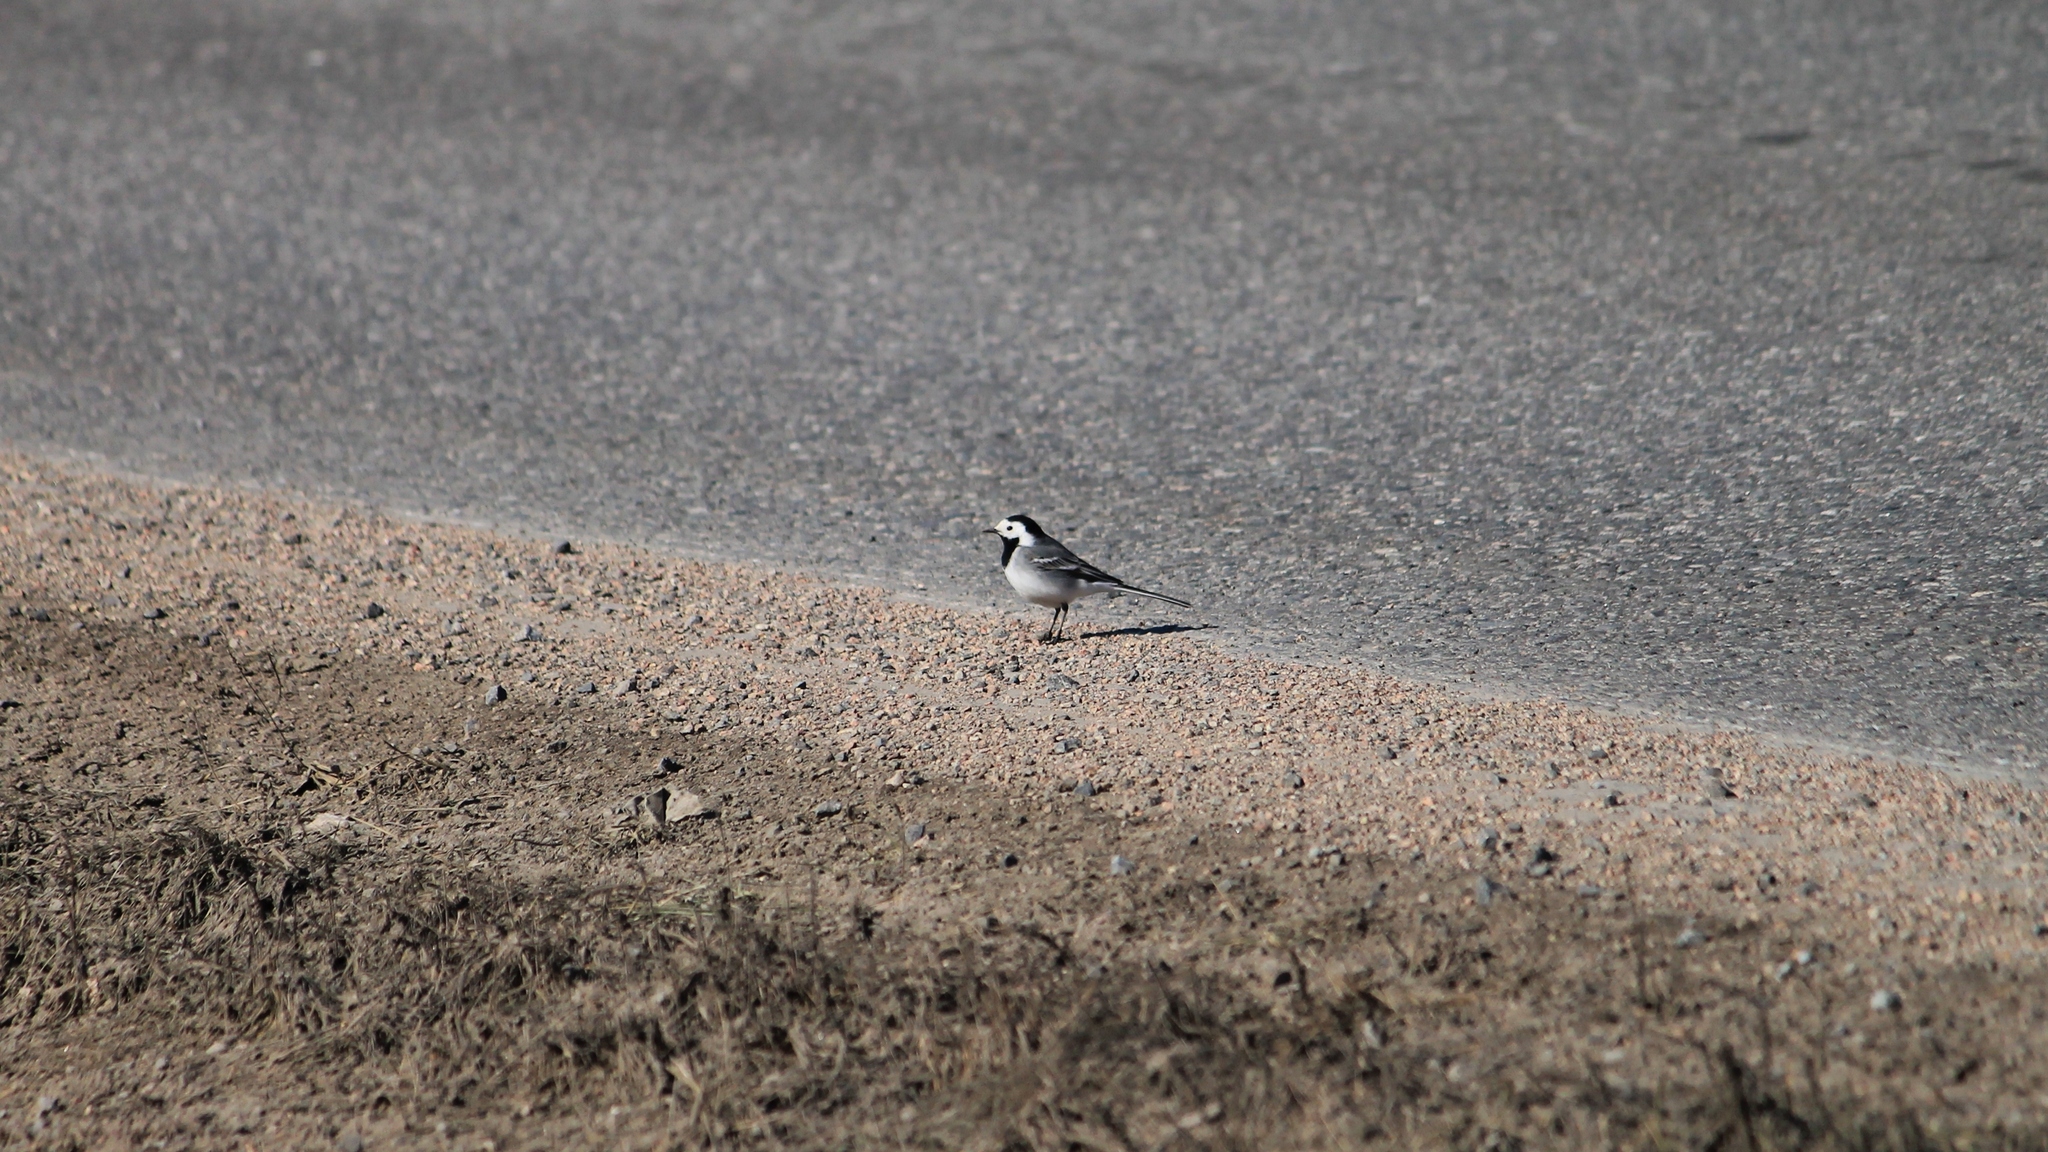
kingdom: Animalia
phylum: Chordata
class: Aves
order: Passeriformes
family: Motacillidae
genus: Motacilla
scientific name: Motacilla alba
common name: White wagtail
